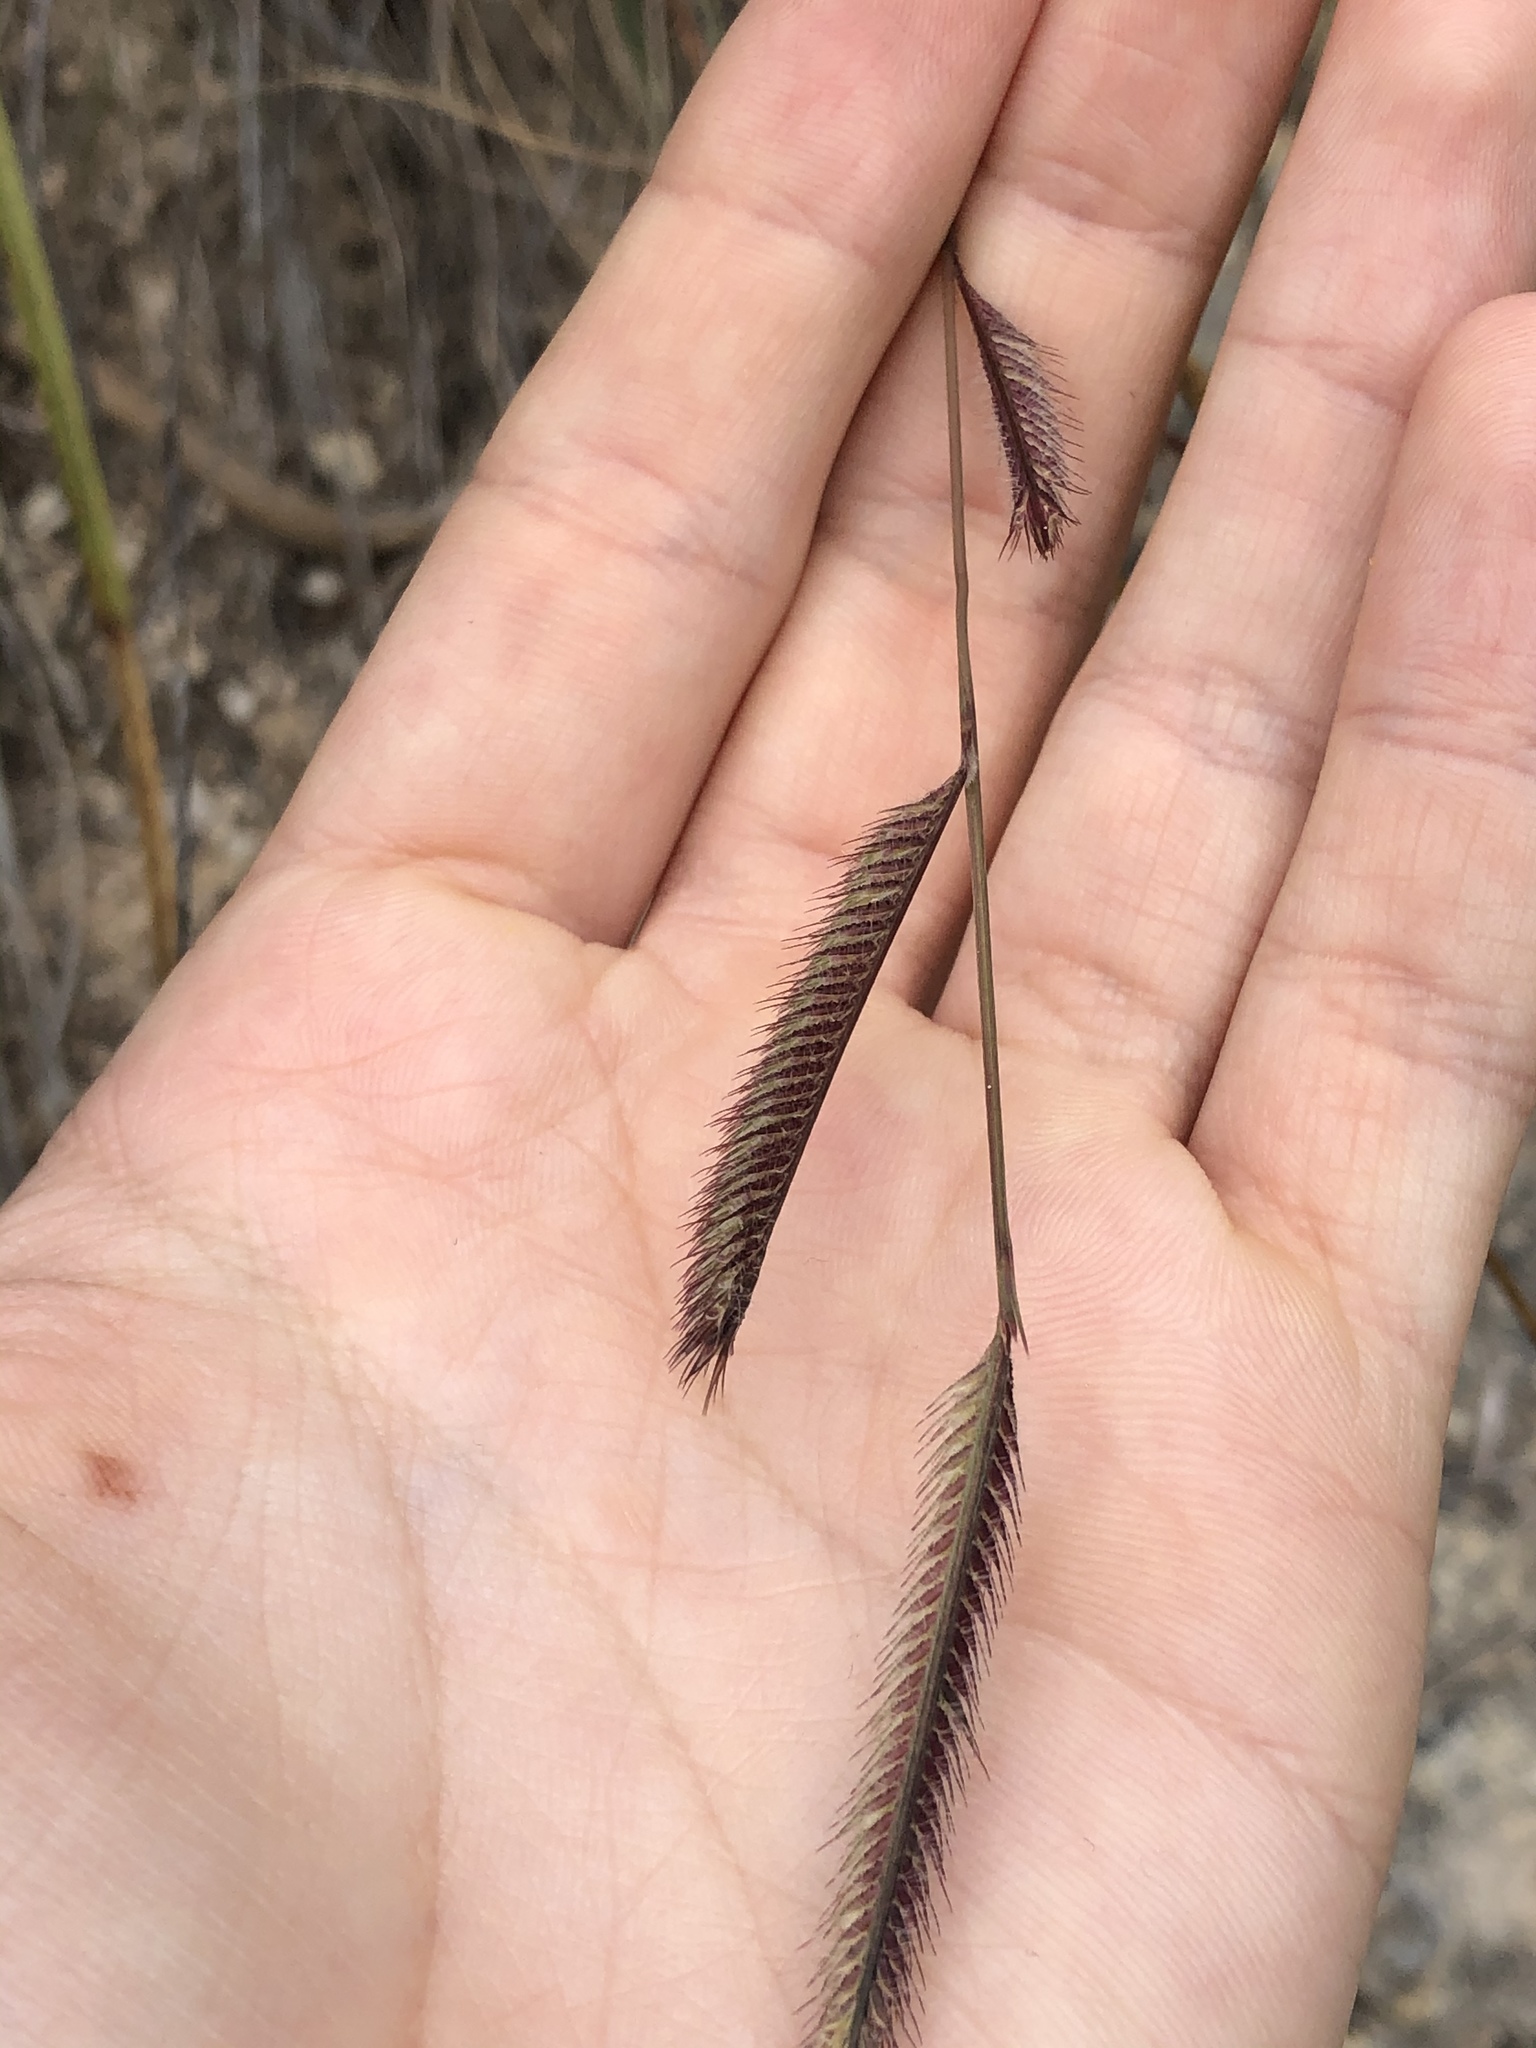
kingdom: Plantae
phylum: Tracheophyta
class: Liliopsida
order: Poales
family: Poaceae
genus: Bouteloua
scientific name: Bouteloua pectinata
